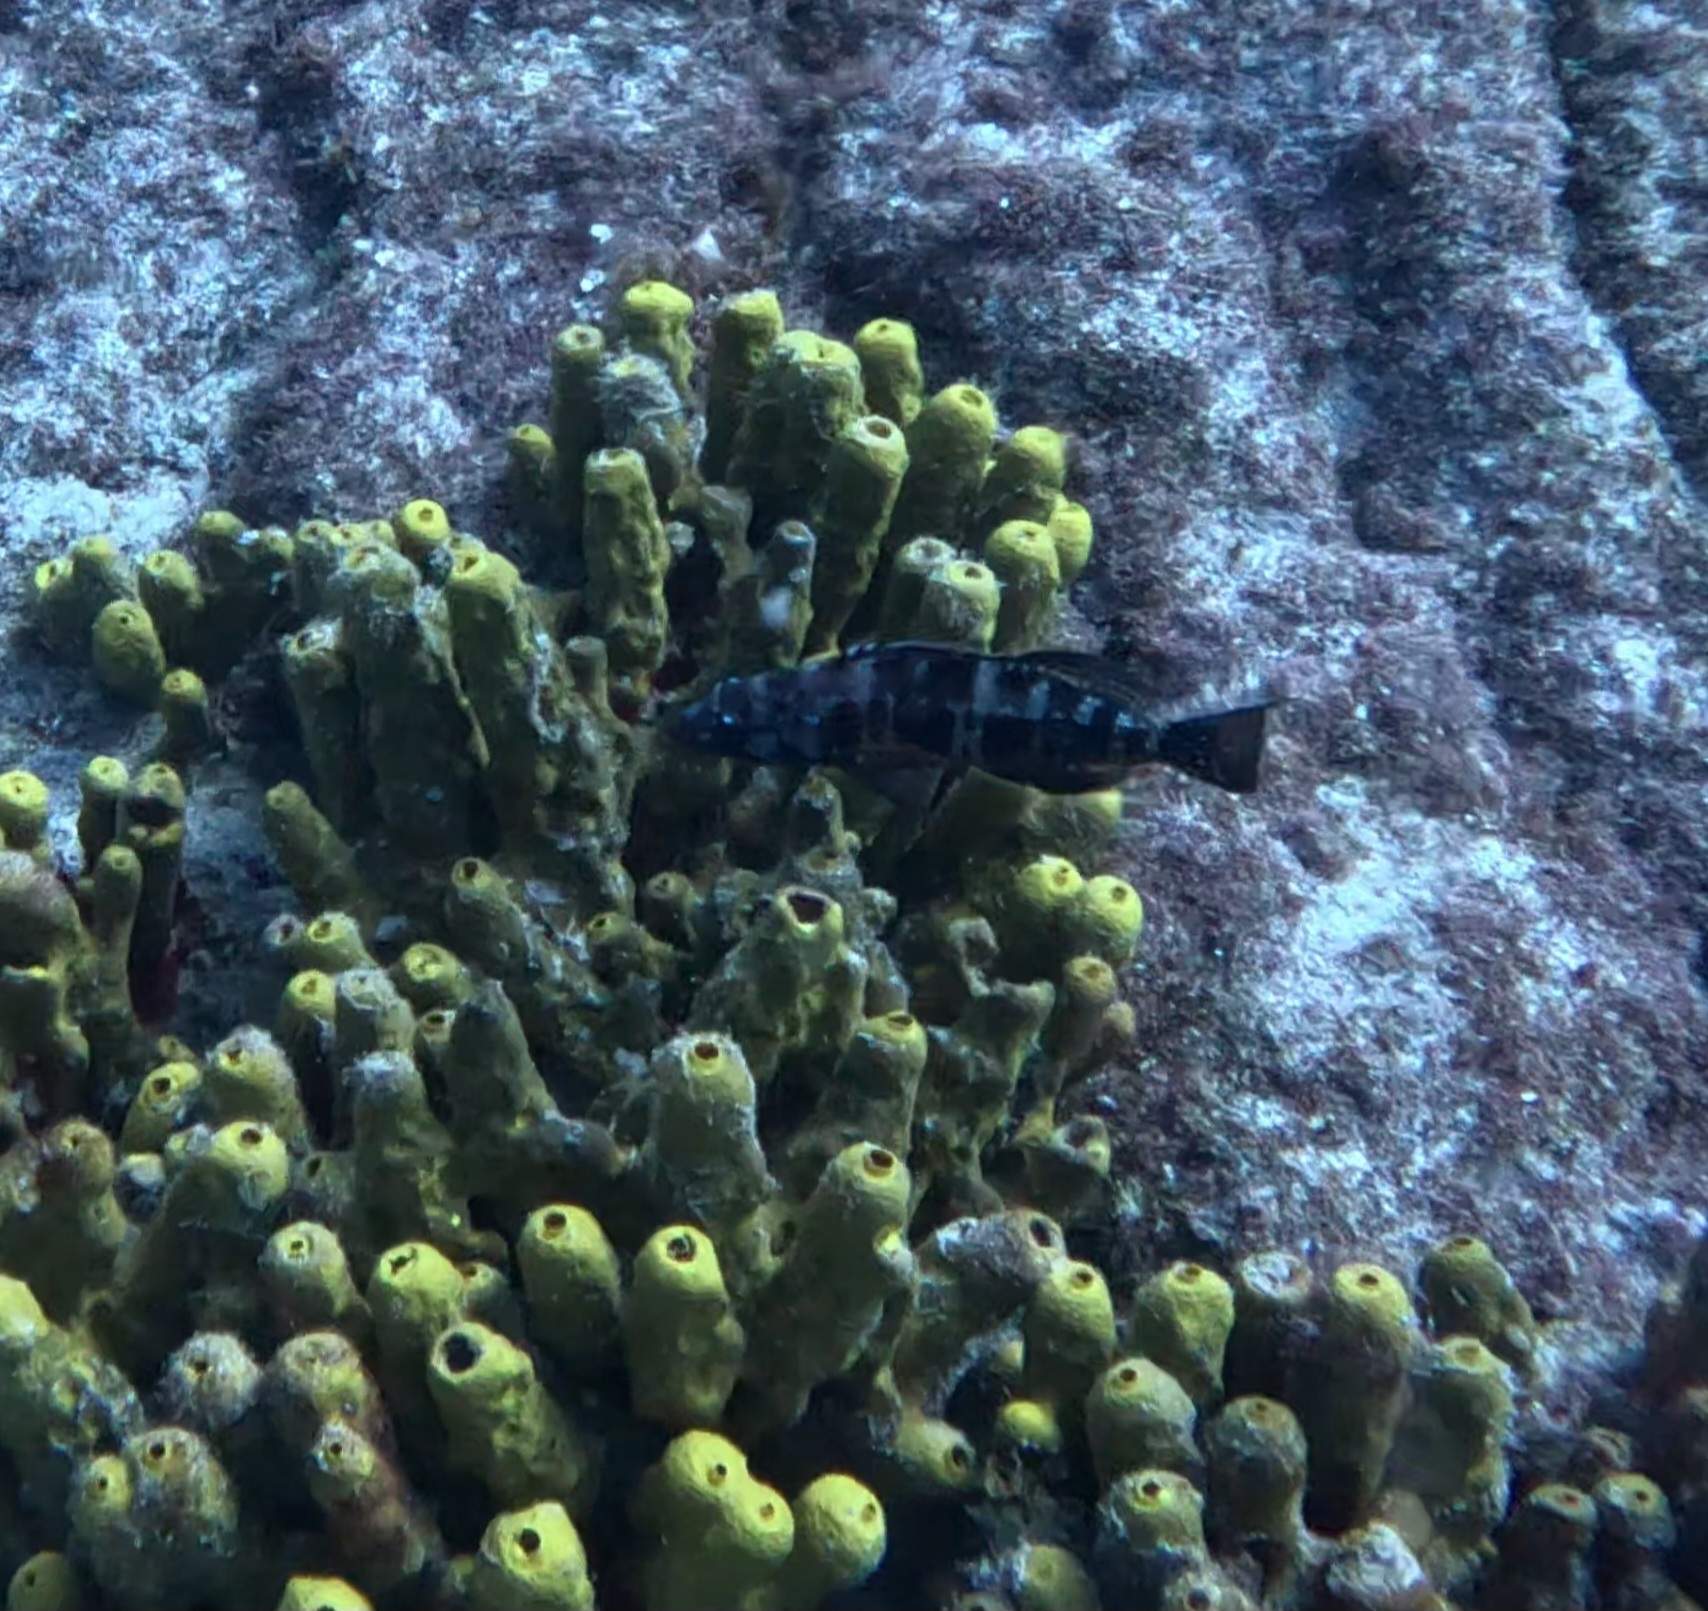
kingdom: Animalia
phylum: Chordata
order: Perciformes
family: Serranidae
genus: Serranus
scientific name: Serranus atricauda
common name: Blacktail comber
